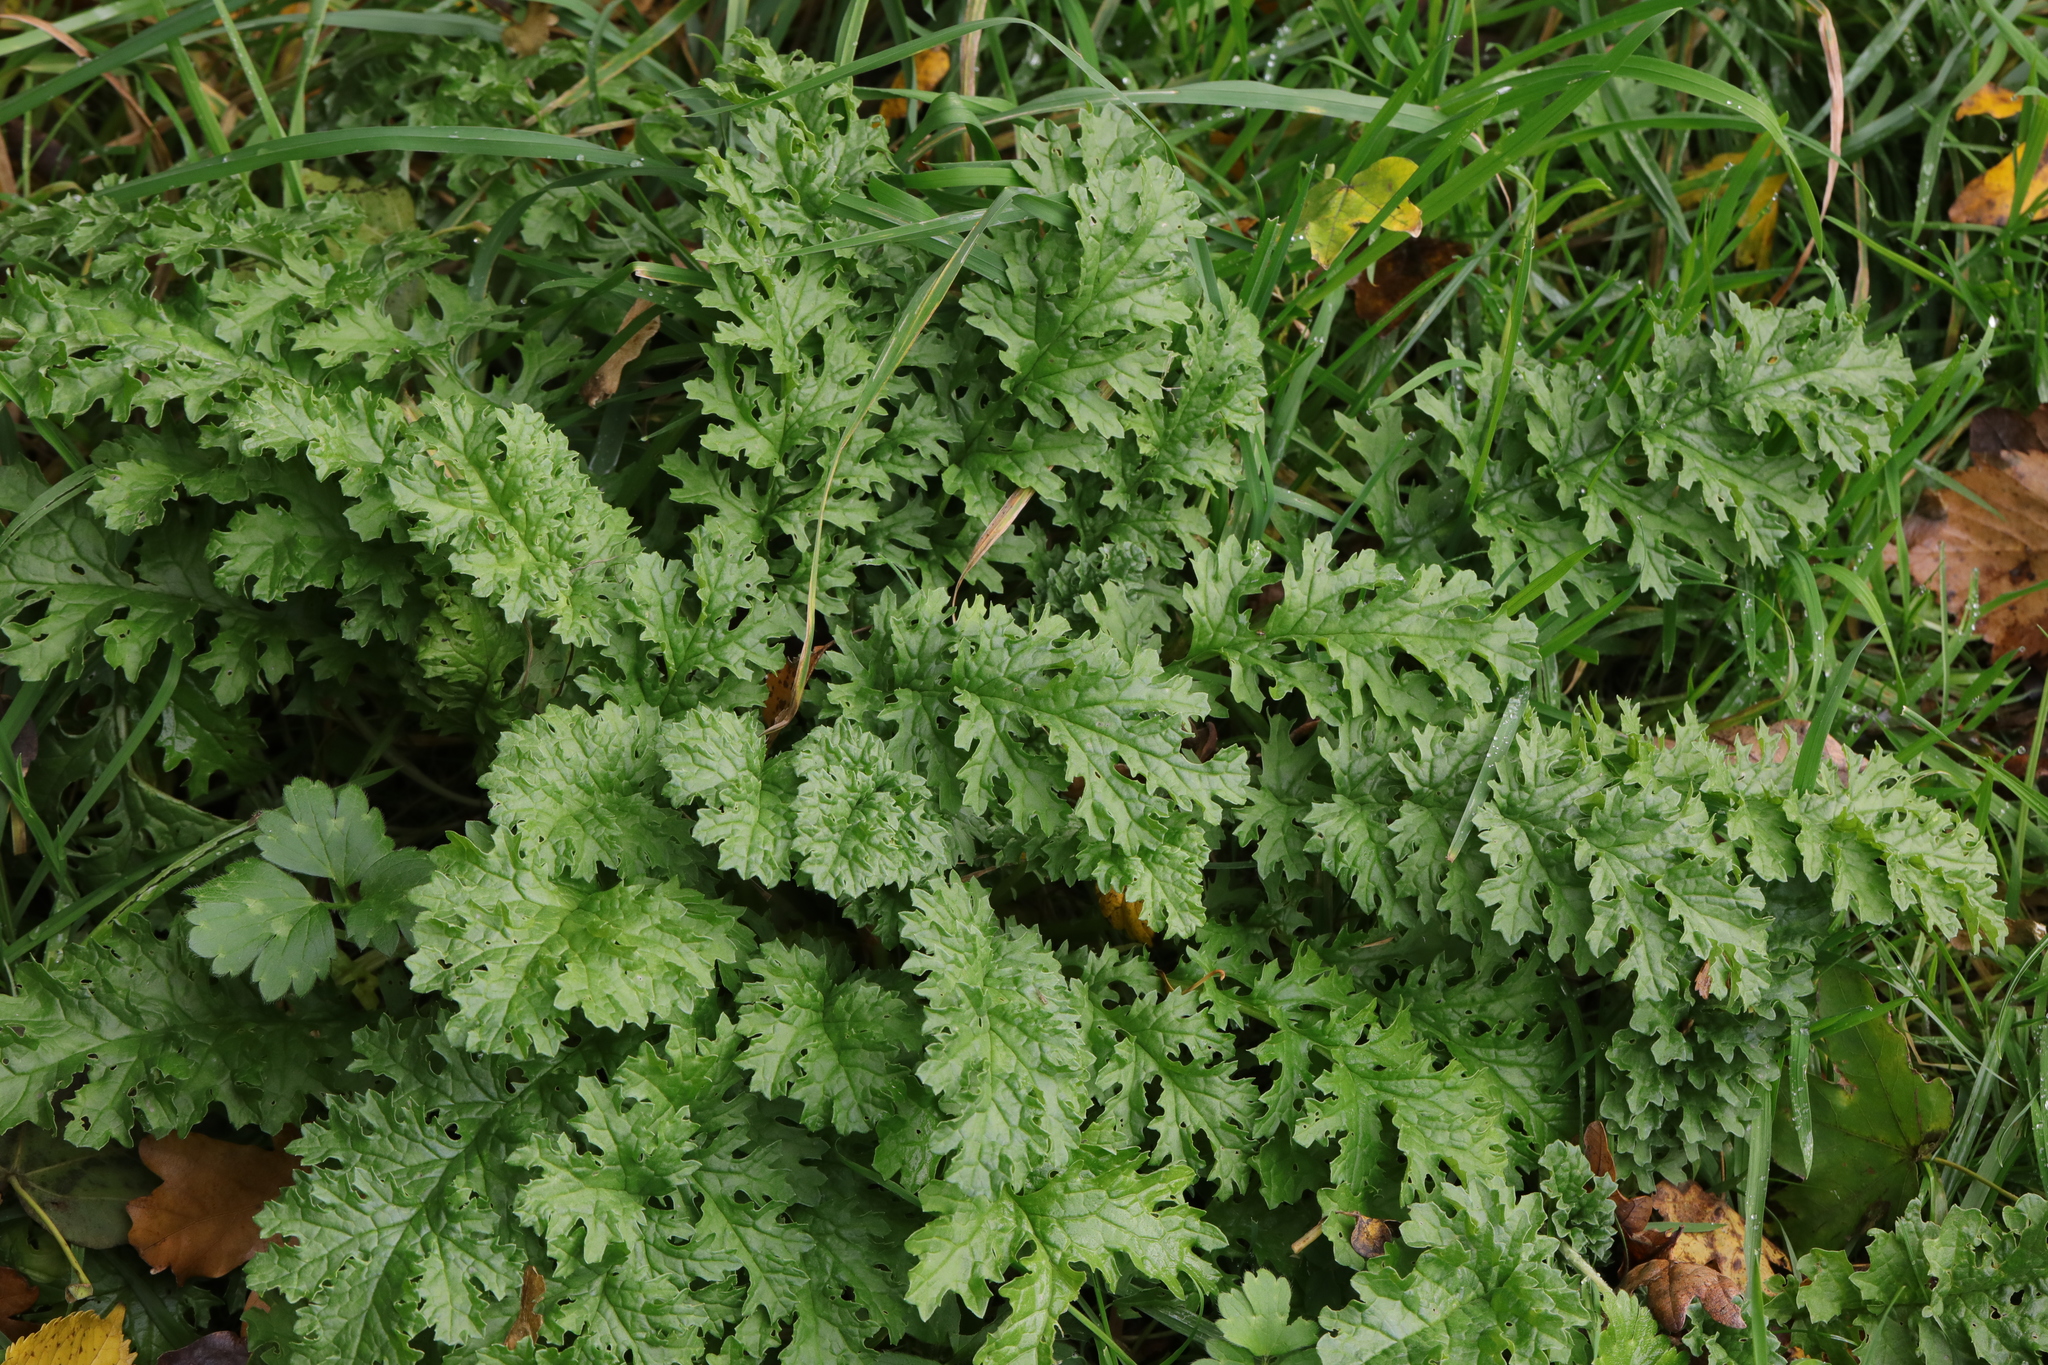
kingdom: Plantae
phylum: Tracheophyta
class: Magnoliopsida
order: Asterales
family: Asteraceae
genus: Jacobaea
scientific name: Jacobaea vulgaris
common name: Stinking willie
